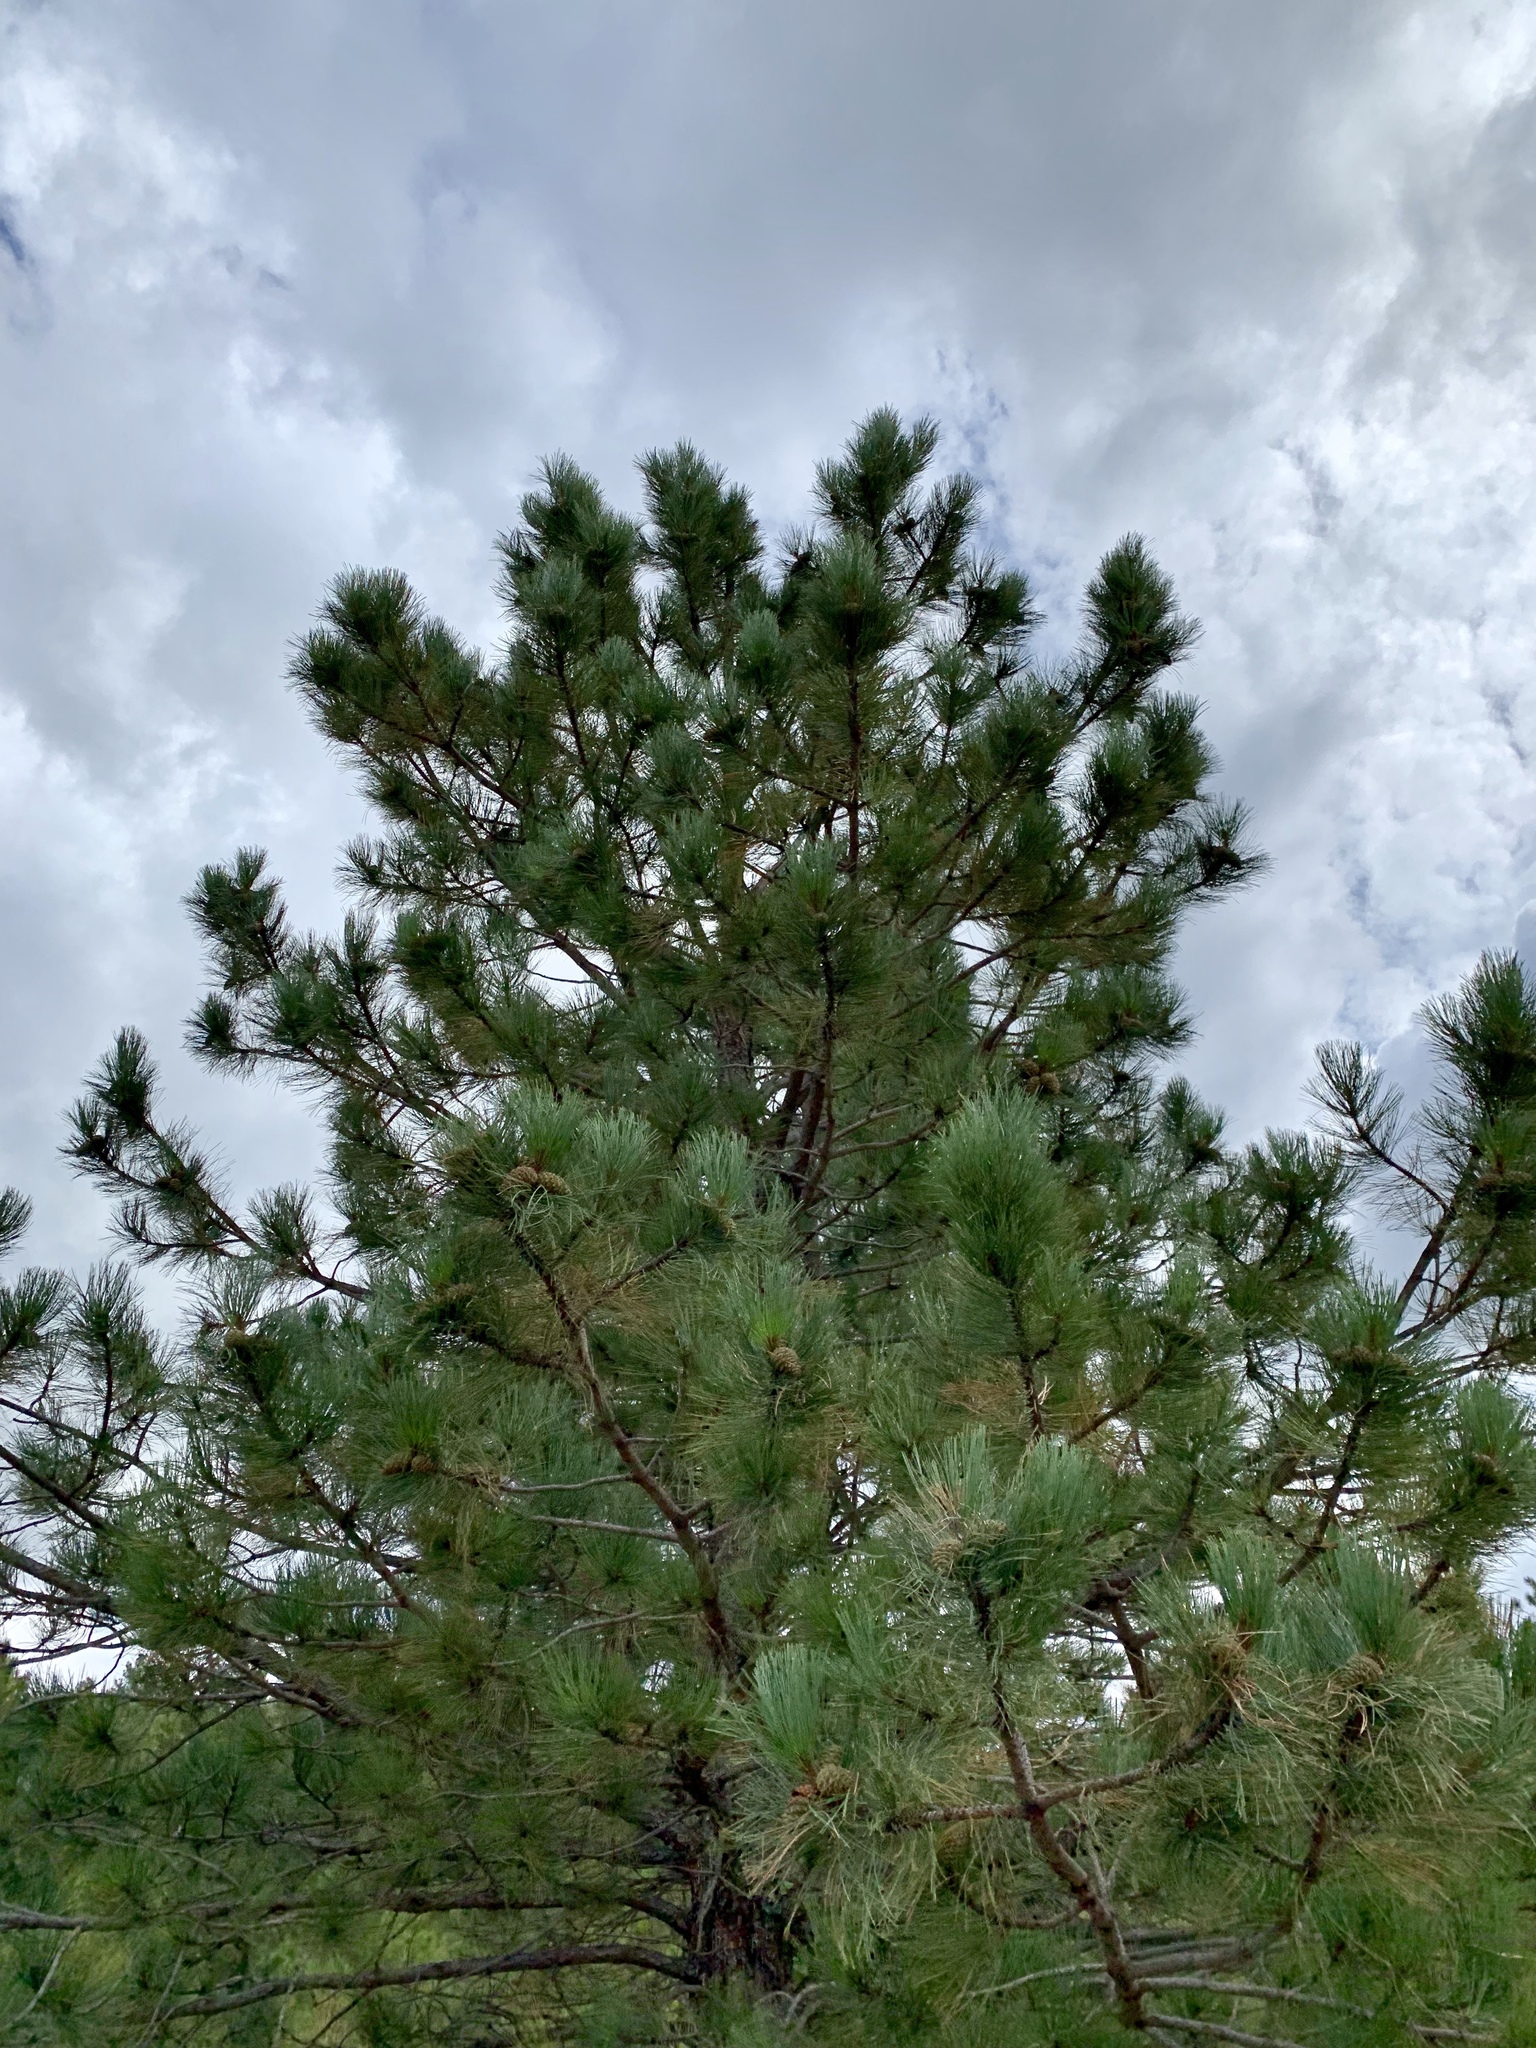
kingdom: Plantae
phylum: Tracheophyta
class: Pinopsida
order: Pinales
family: Pinaceae
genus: Pinus
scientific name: Pinus ponderosa
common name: Western yellow-pine
